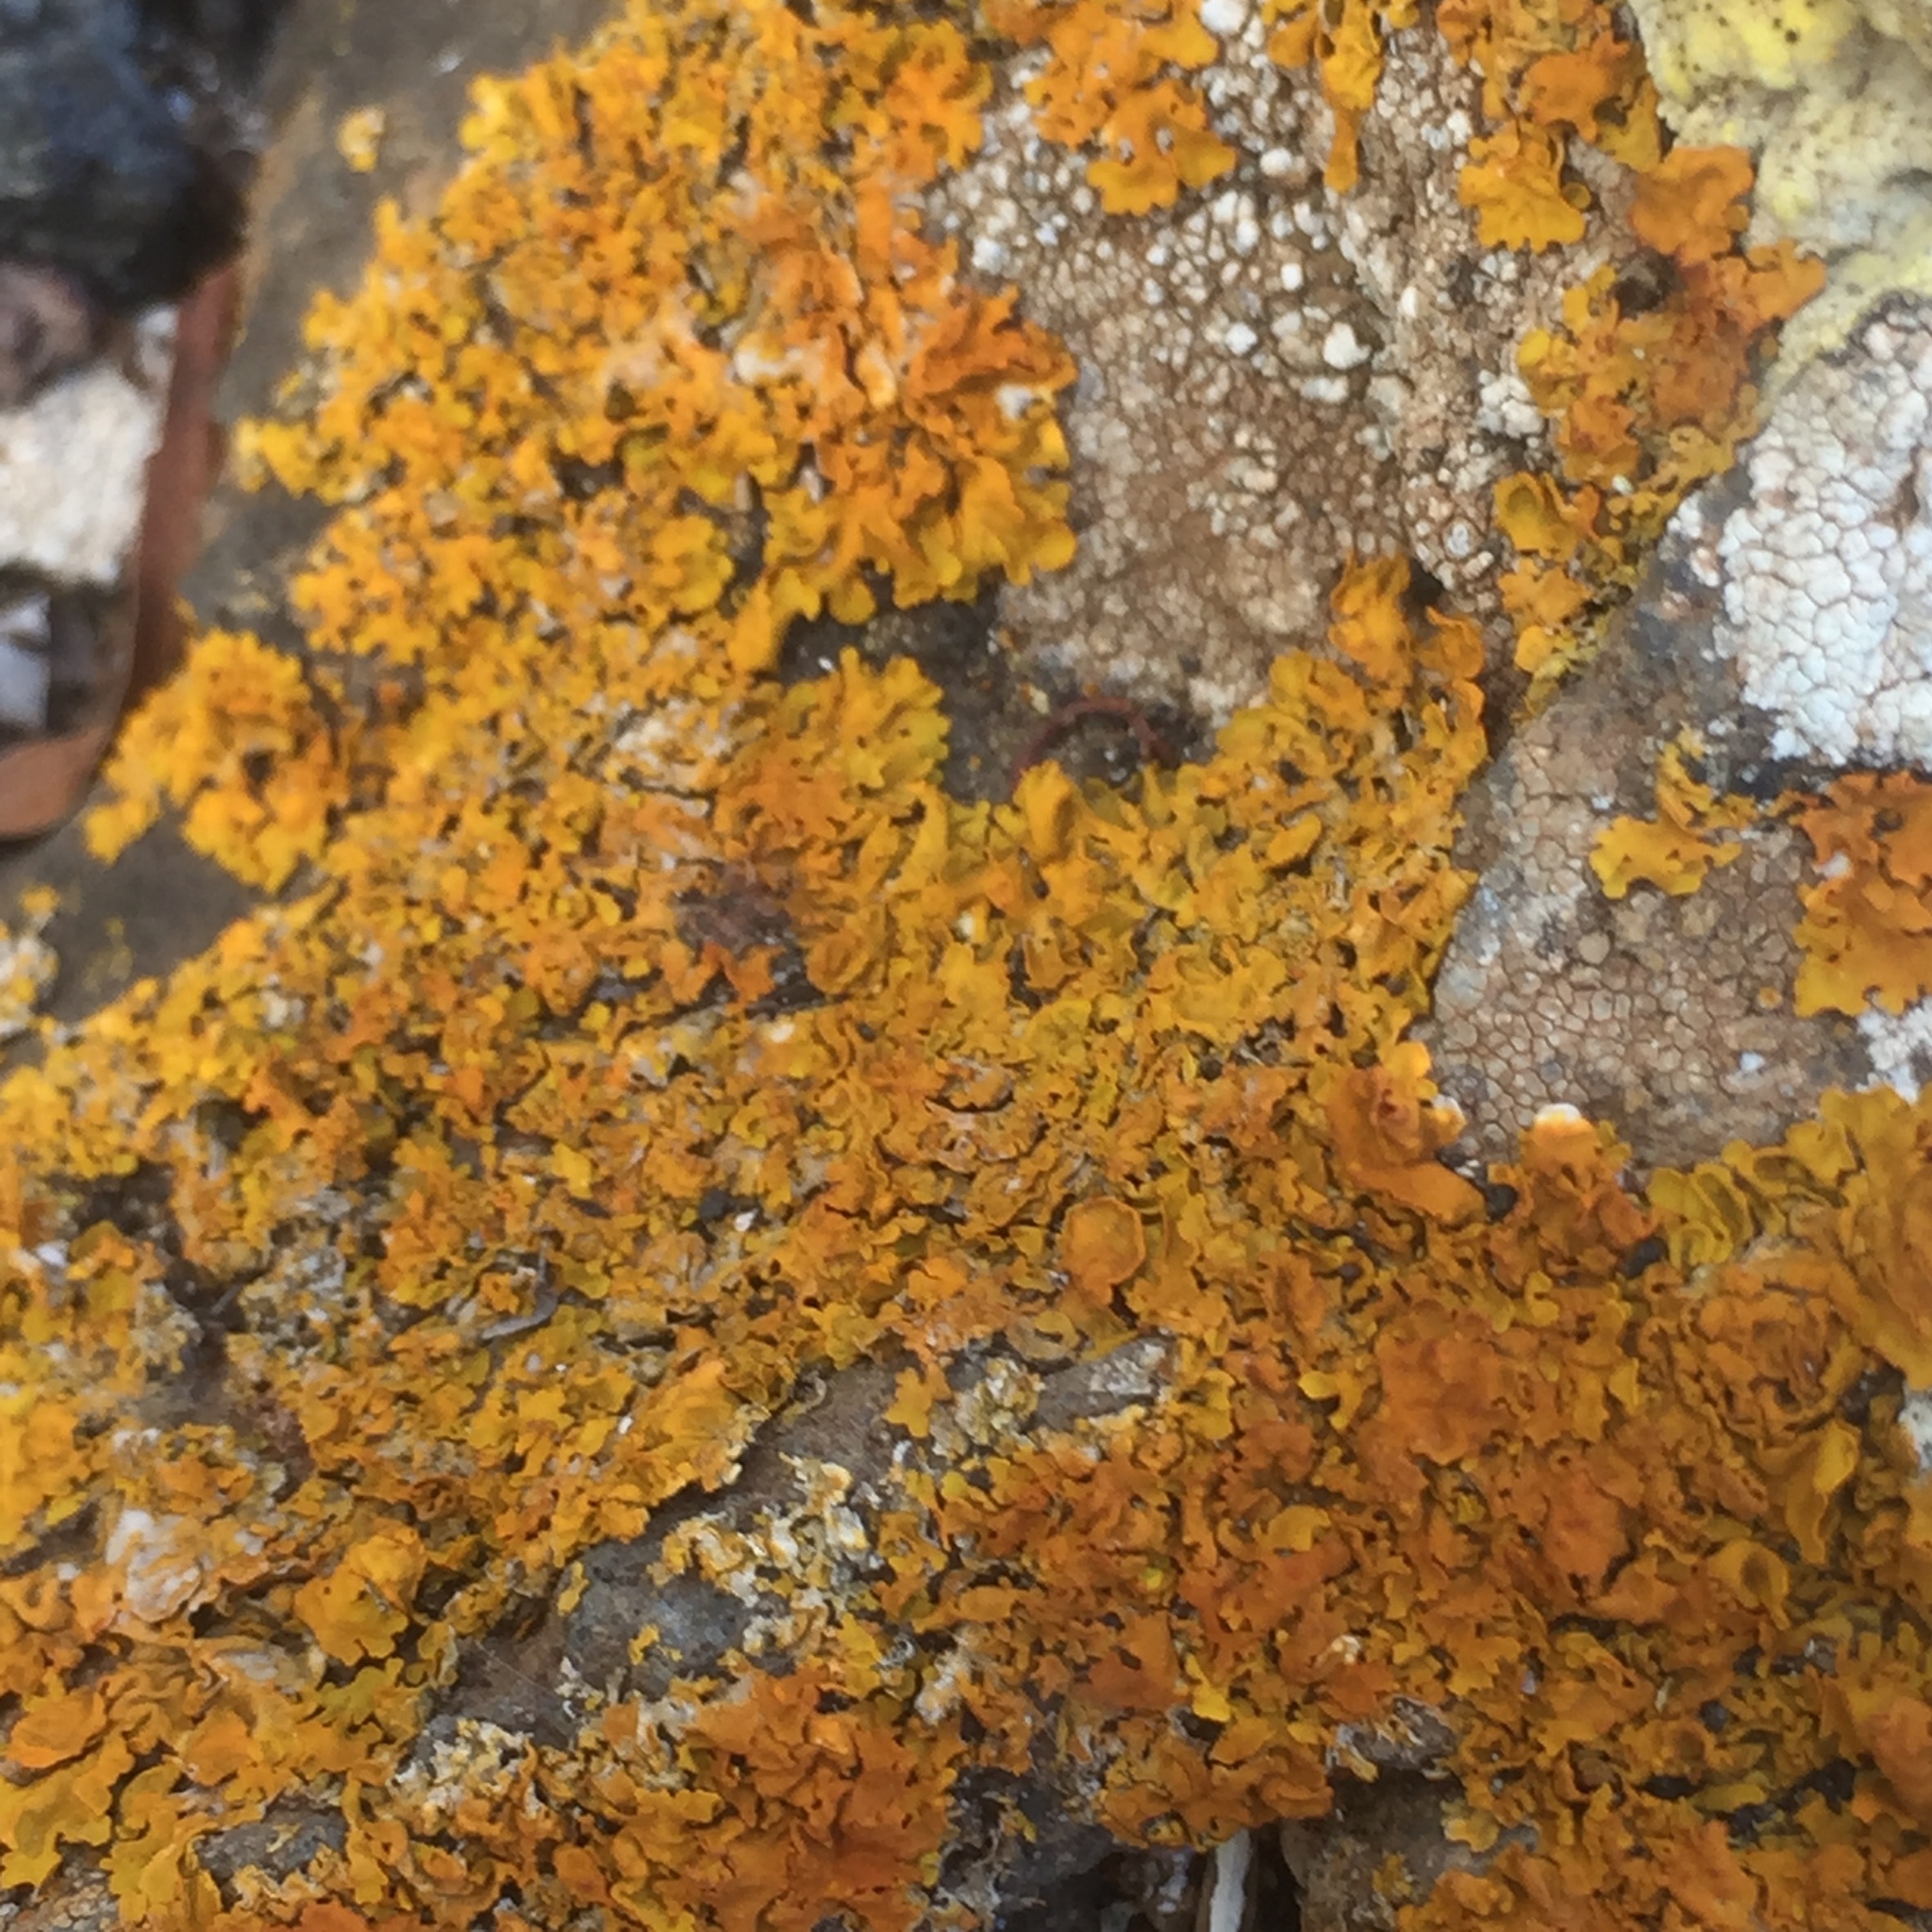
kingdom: Fungi
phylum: Ascomycota
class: Lecanoromycetes
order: Teloschistales
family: Teloschistaceae
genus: Xanthoria
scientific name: Xanthoria parietina
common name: Common orange lichen
